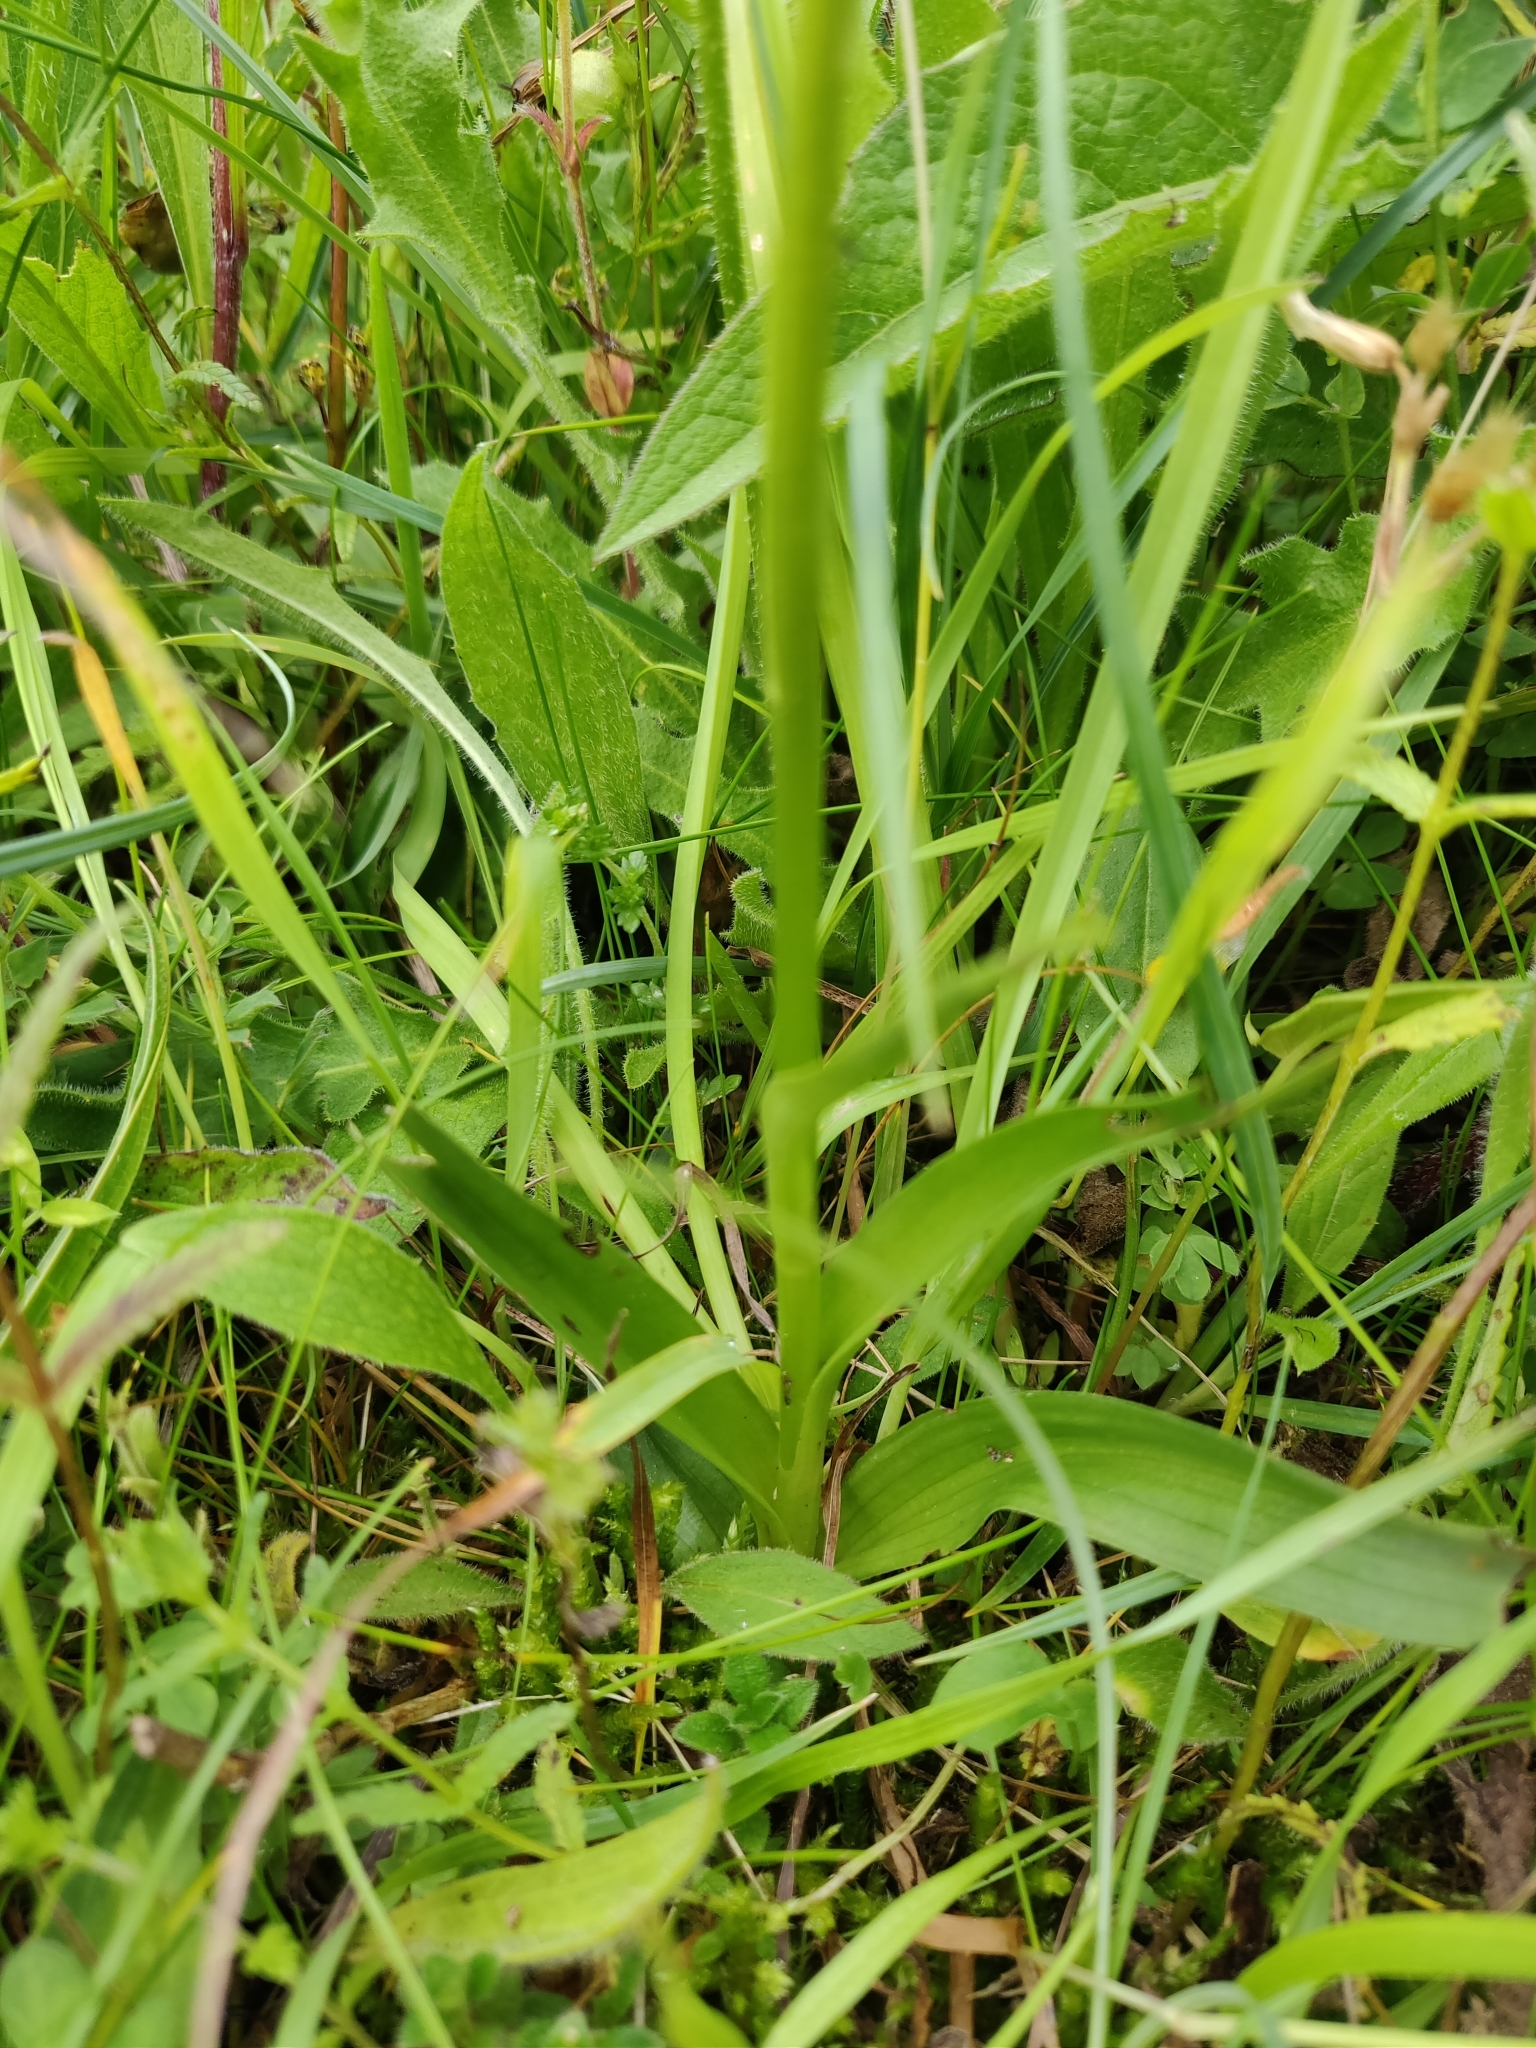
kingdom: Plantae
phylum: Tracheophyta
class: Liliopsida
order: Asparagales
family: Orchidaceae
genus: Gymnadenia
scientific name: Gymnadenia conopsea
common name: Fragrant orchid
